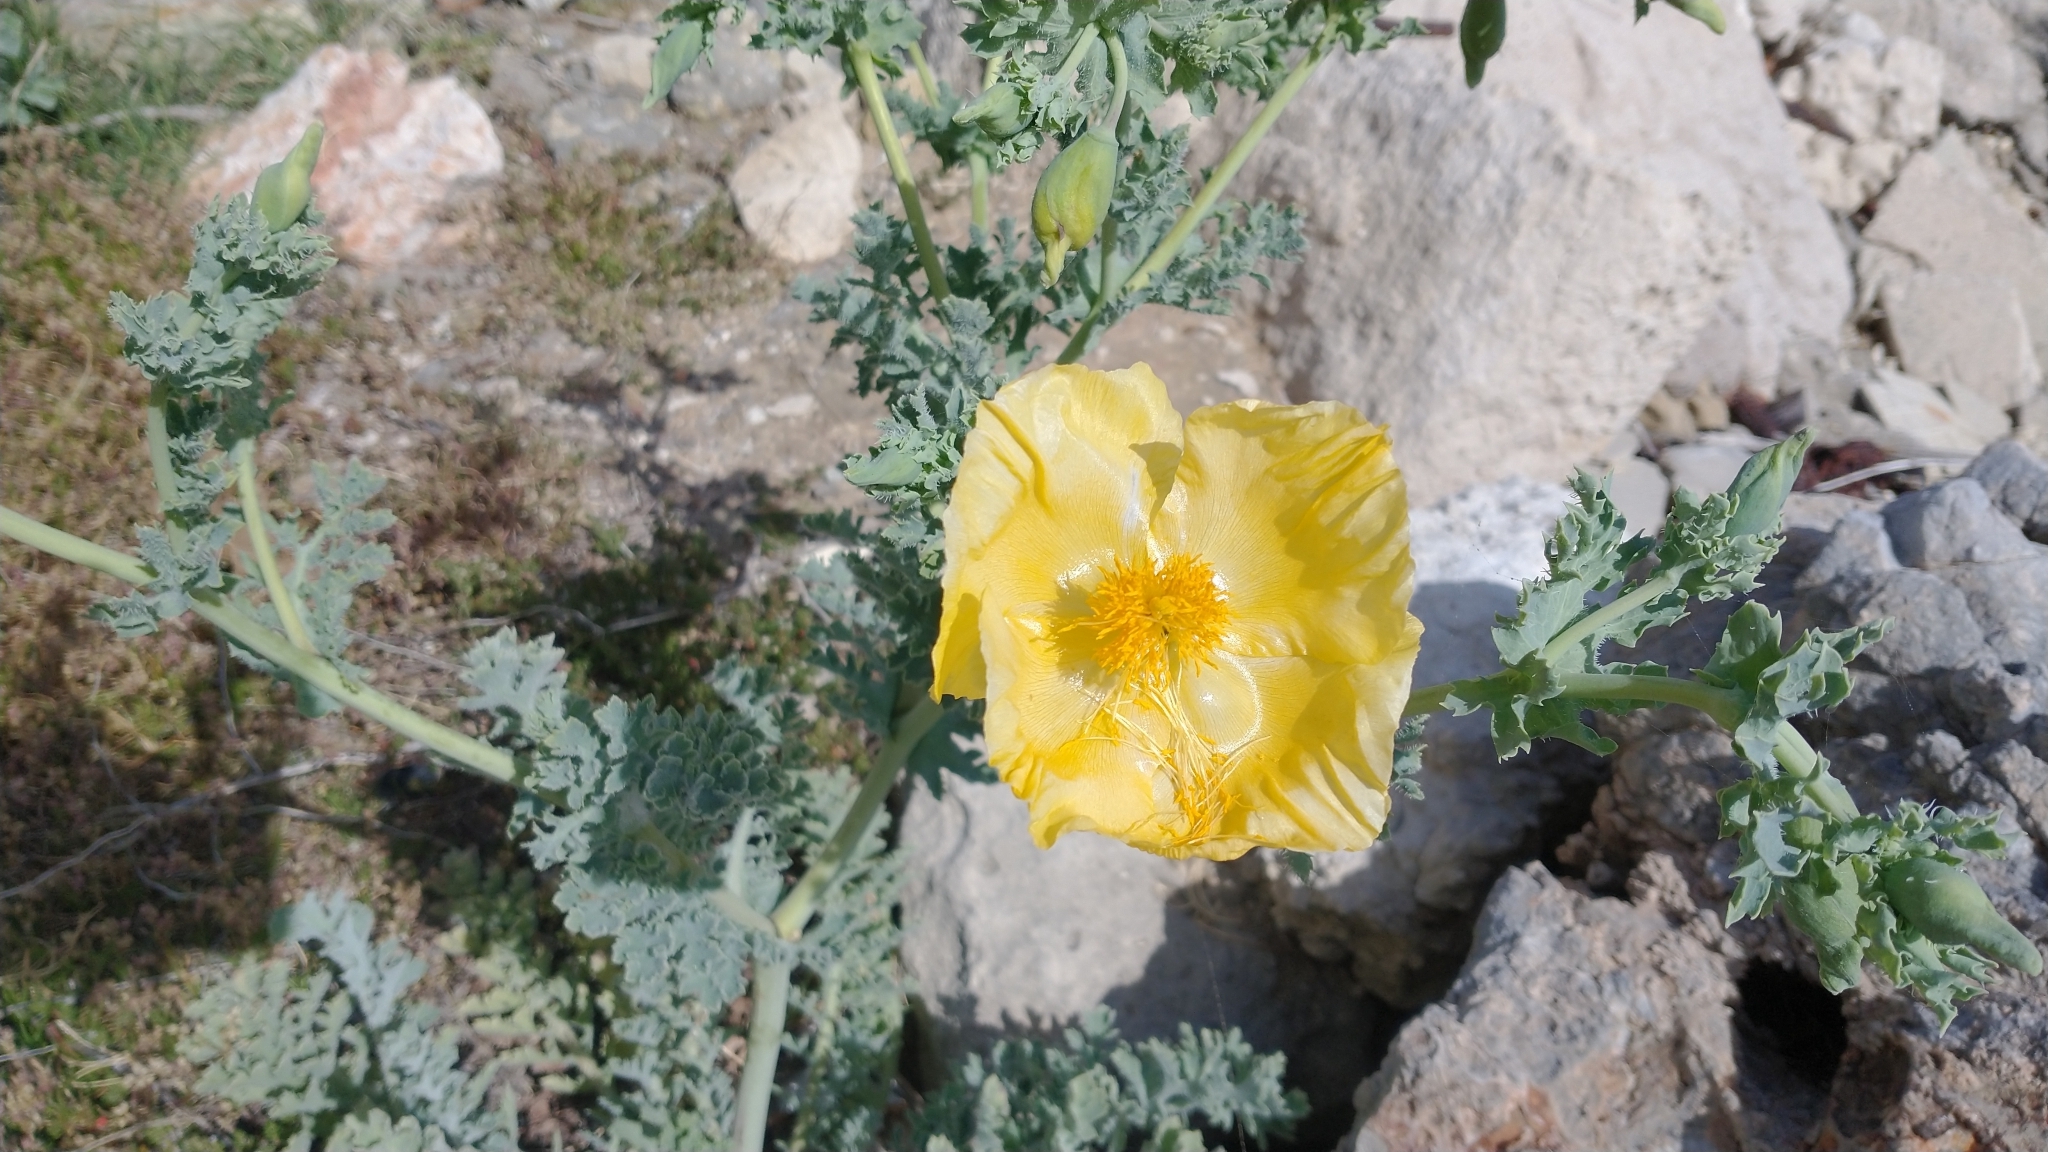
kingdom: Plantae
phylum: Tracheophyta
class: Magnoliopsida
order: Ranunculales
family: Papaveraceae
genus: Glaucium
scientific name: Glaucium flavum
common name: Yellow horned-poppy
